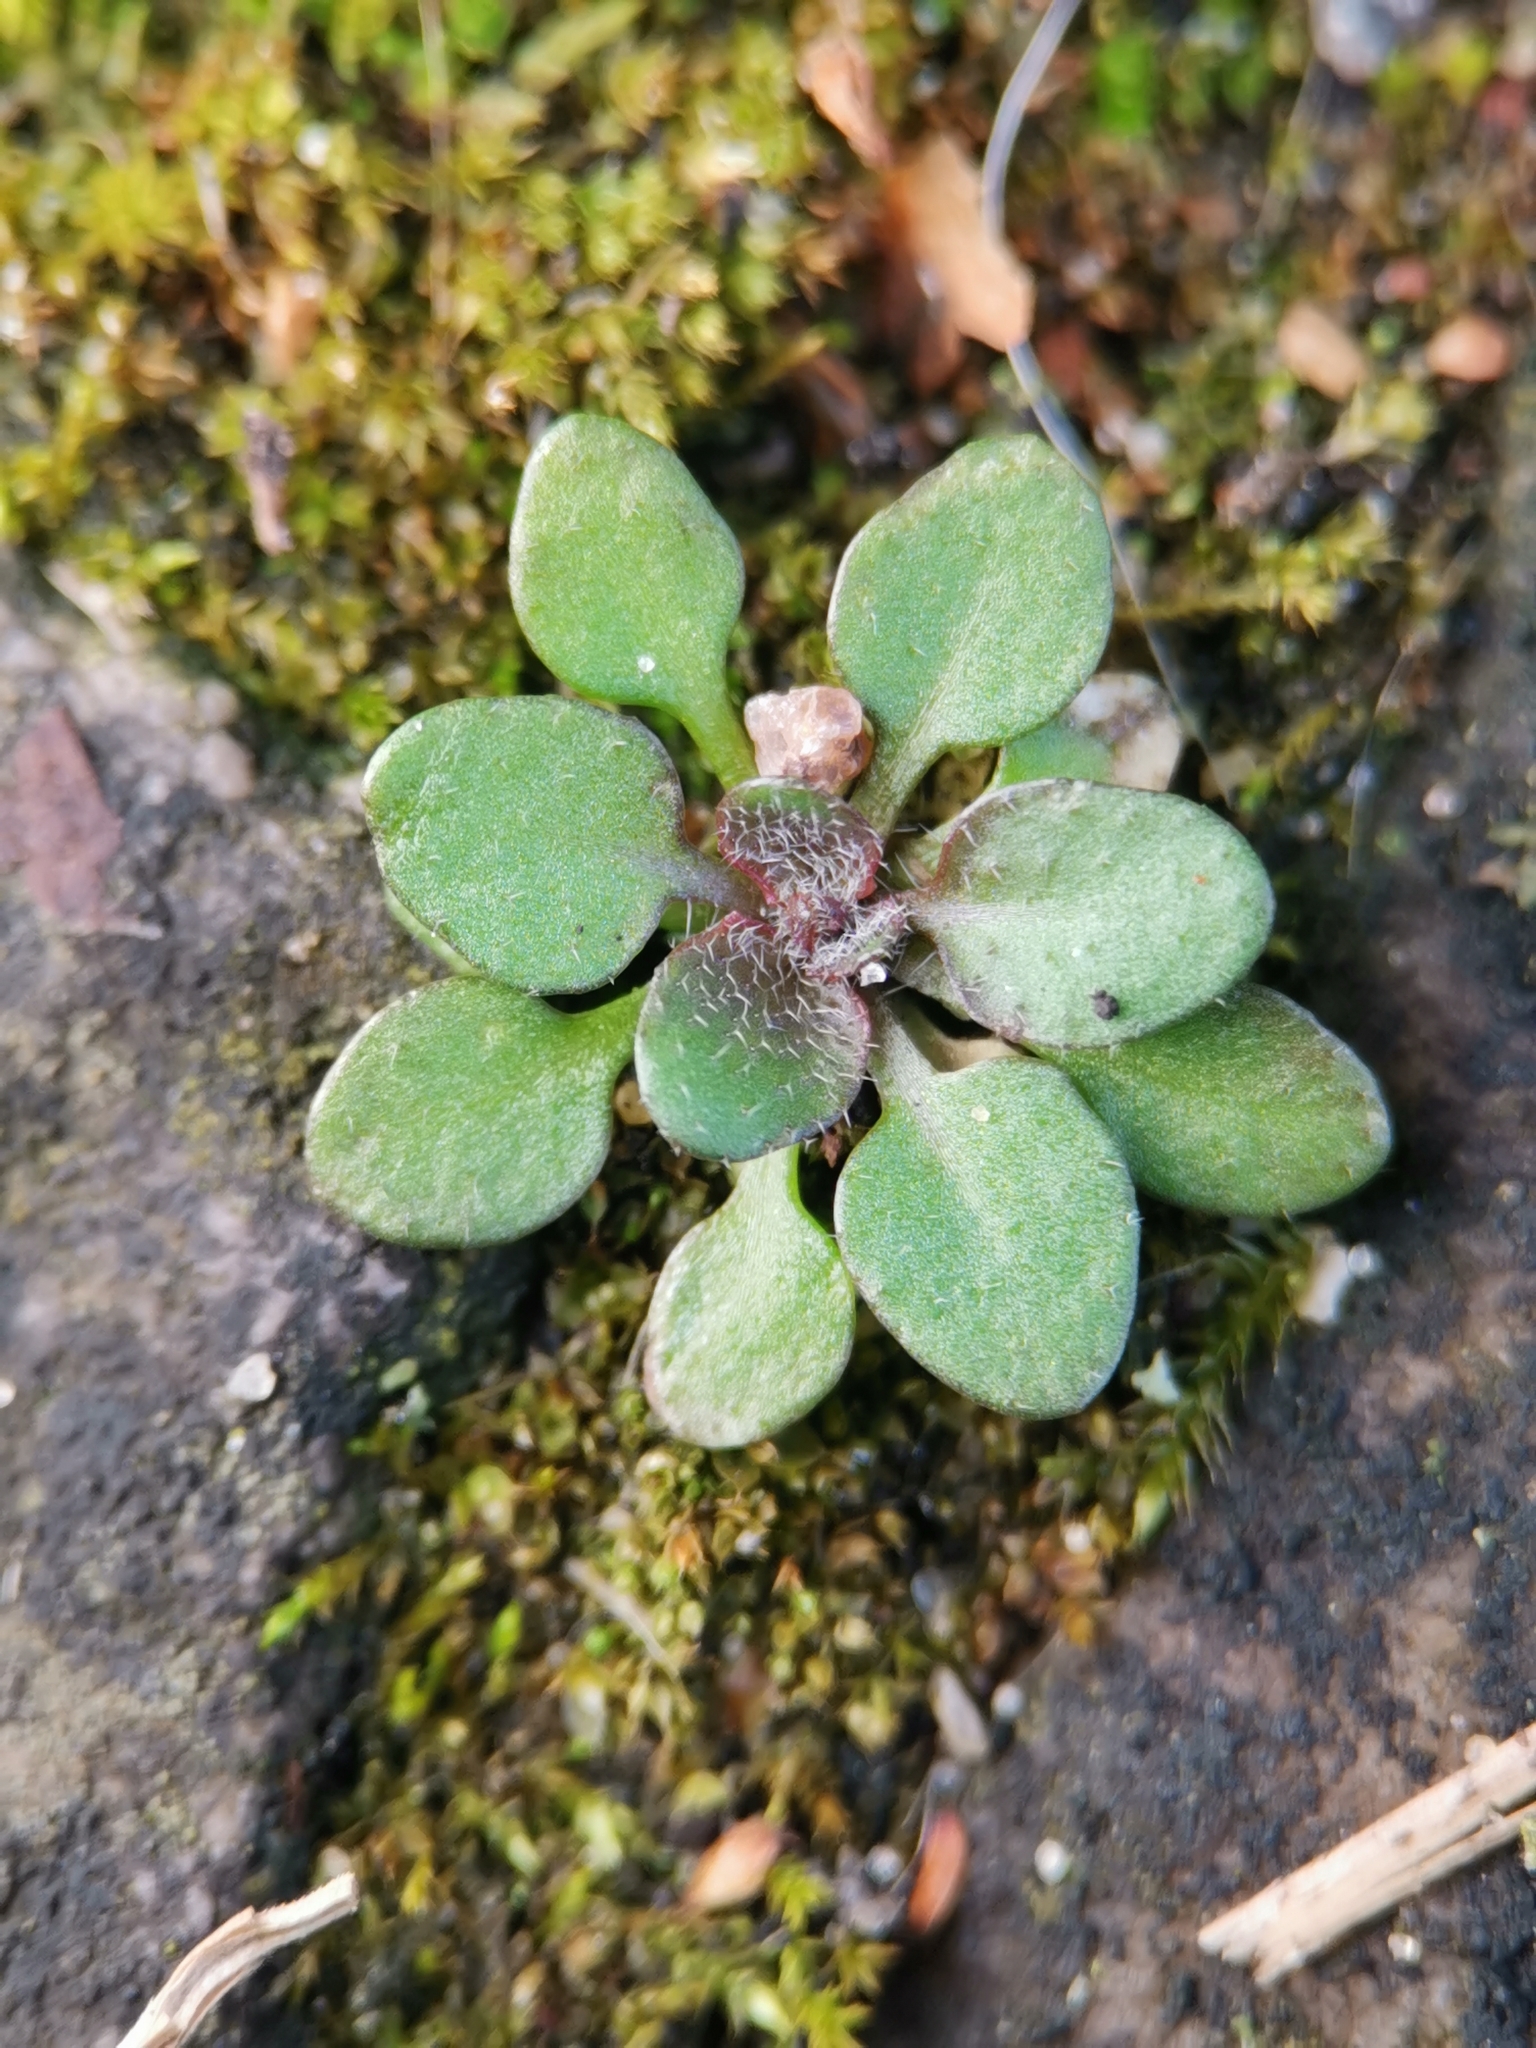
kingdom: Plantae
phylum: Tracheophyta
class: Magnoliopsida
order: Brassicales
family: Brassicaceae
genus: Arabidopsis
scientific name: Arabidopsis thaliana
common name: Thale cress
